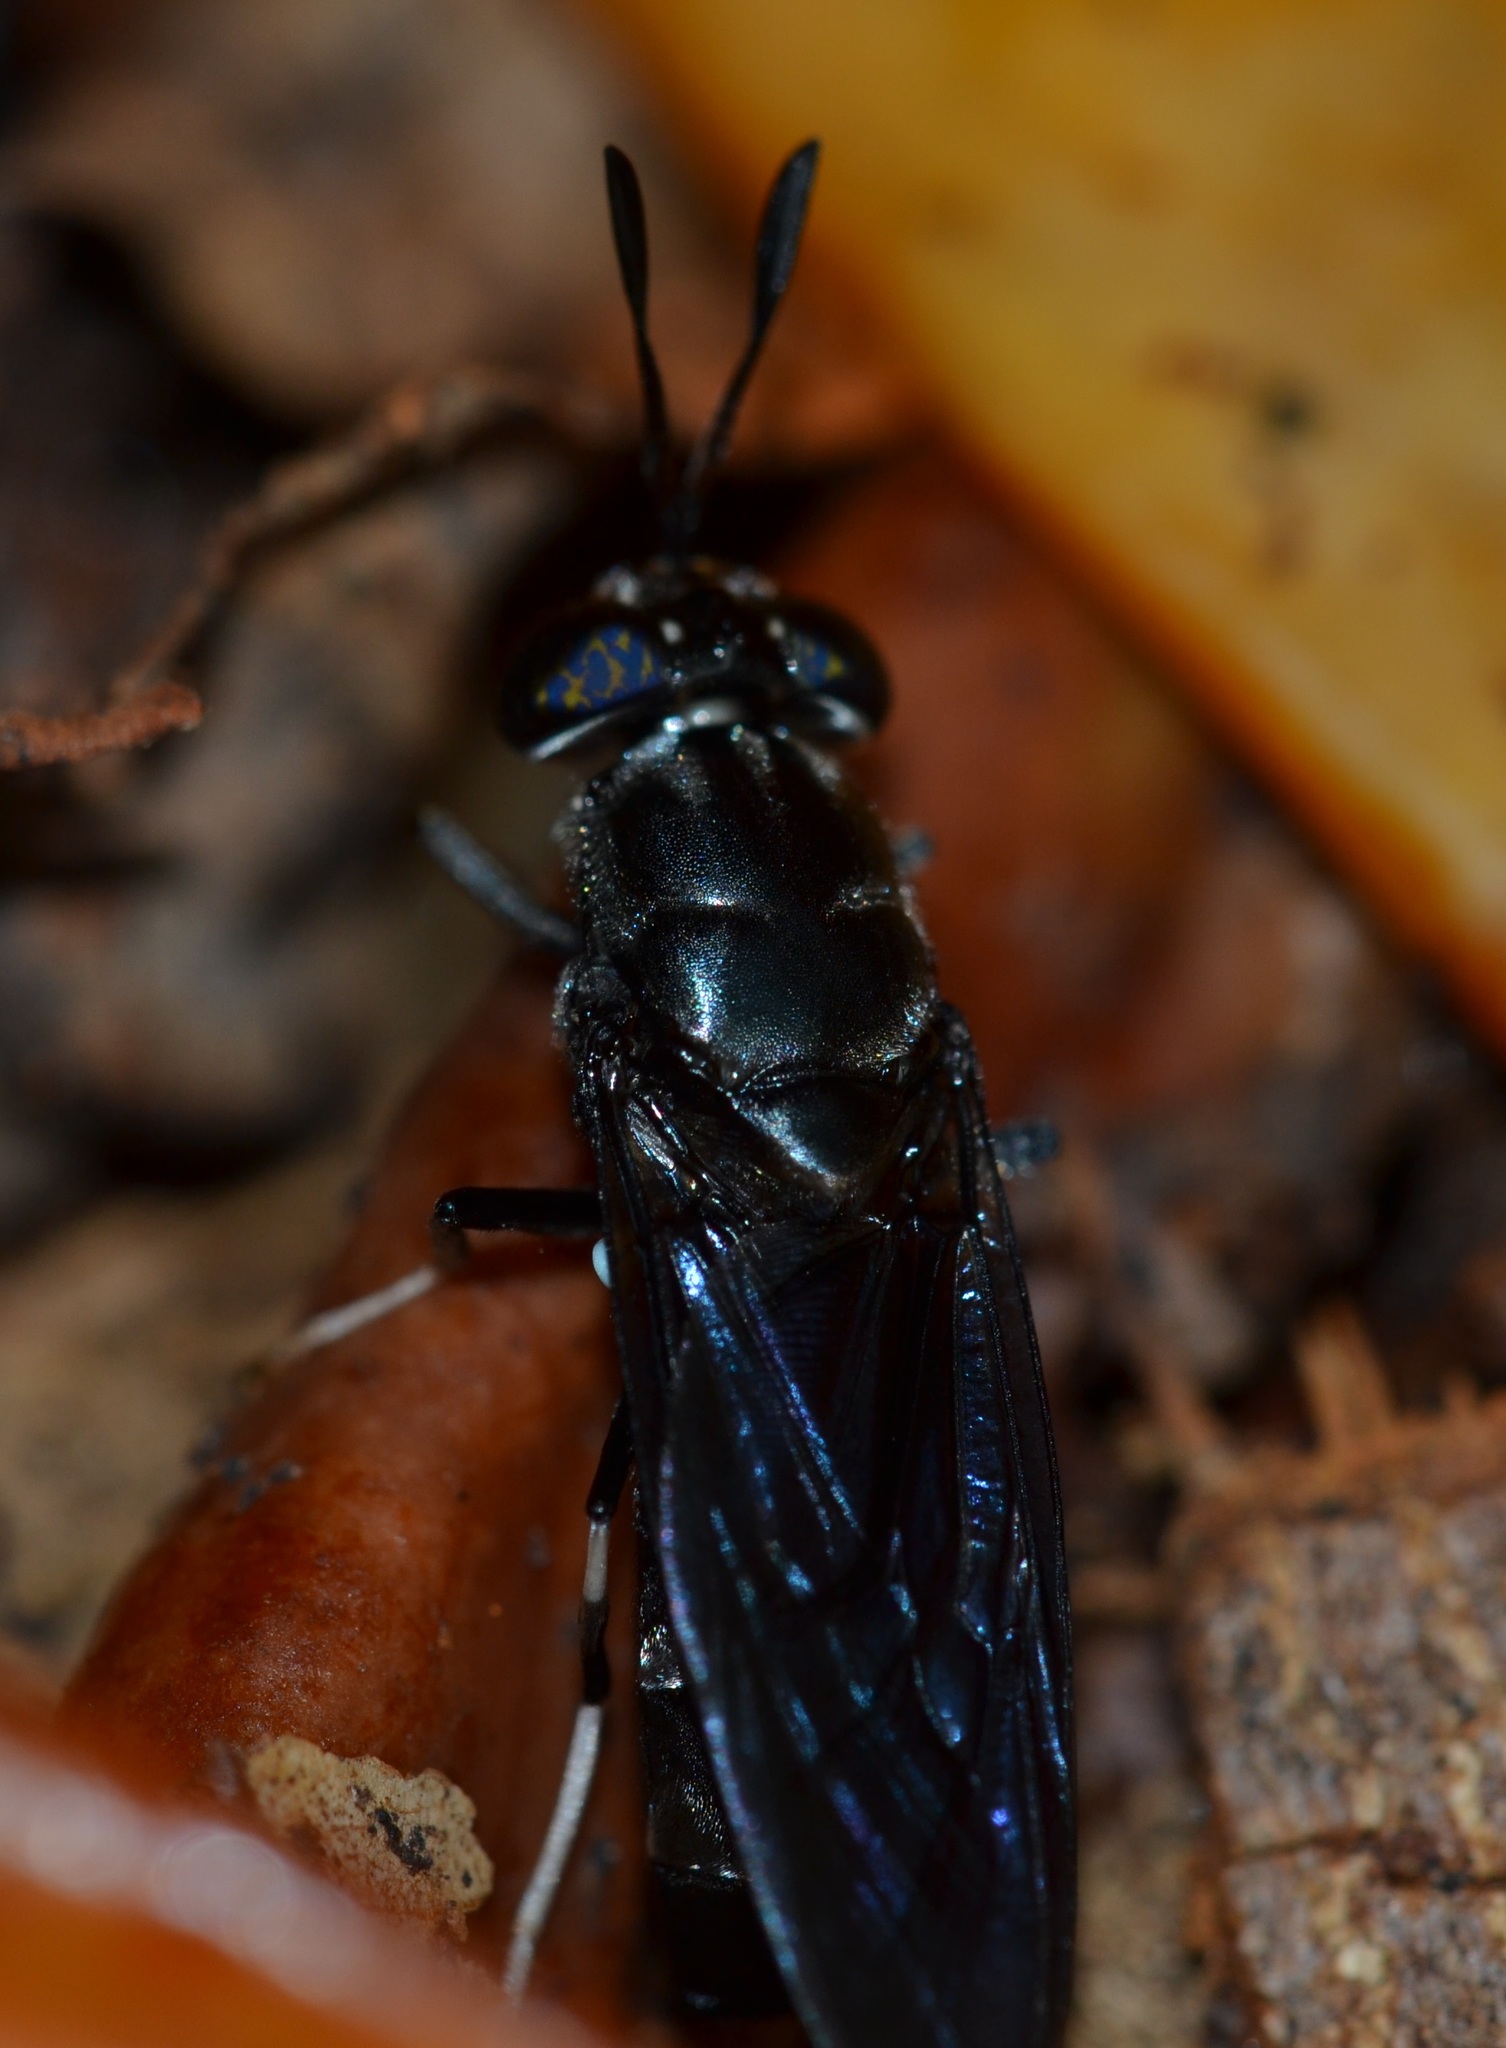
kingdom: Animalia
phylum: Arthropoda
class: Insecta
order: Diptera
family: Stratiomyidae
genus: Hermetia
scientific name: Hermetia illucens
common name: Black soldier fly
